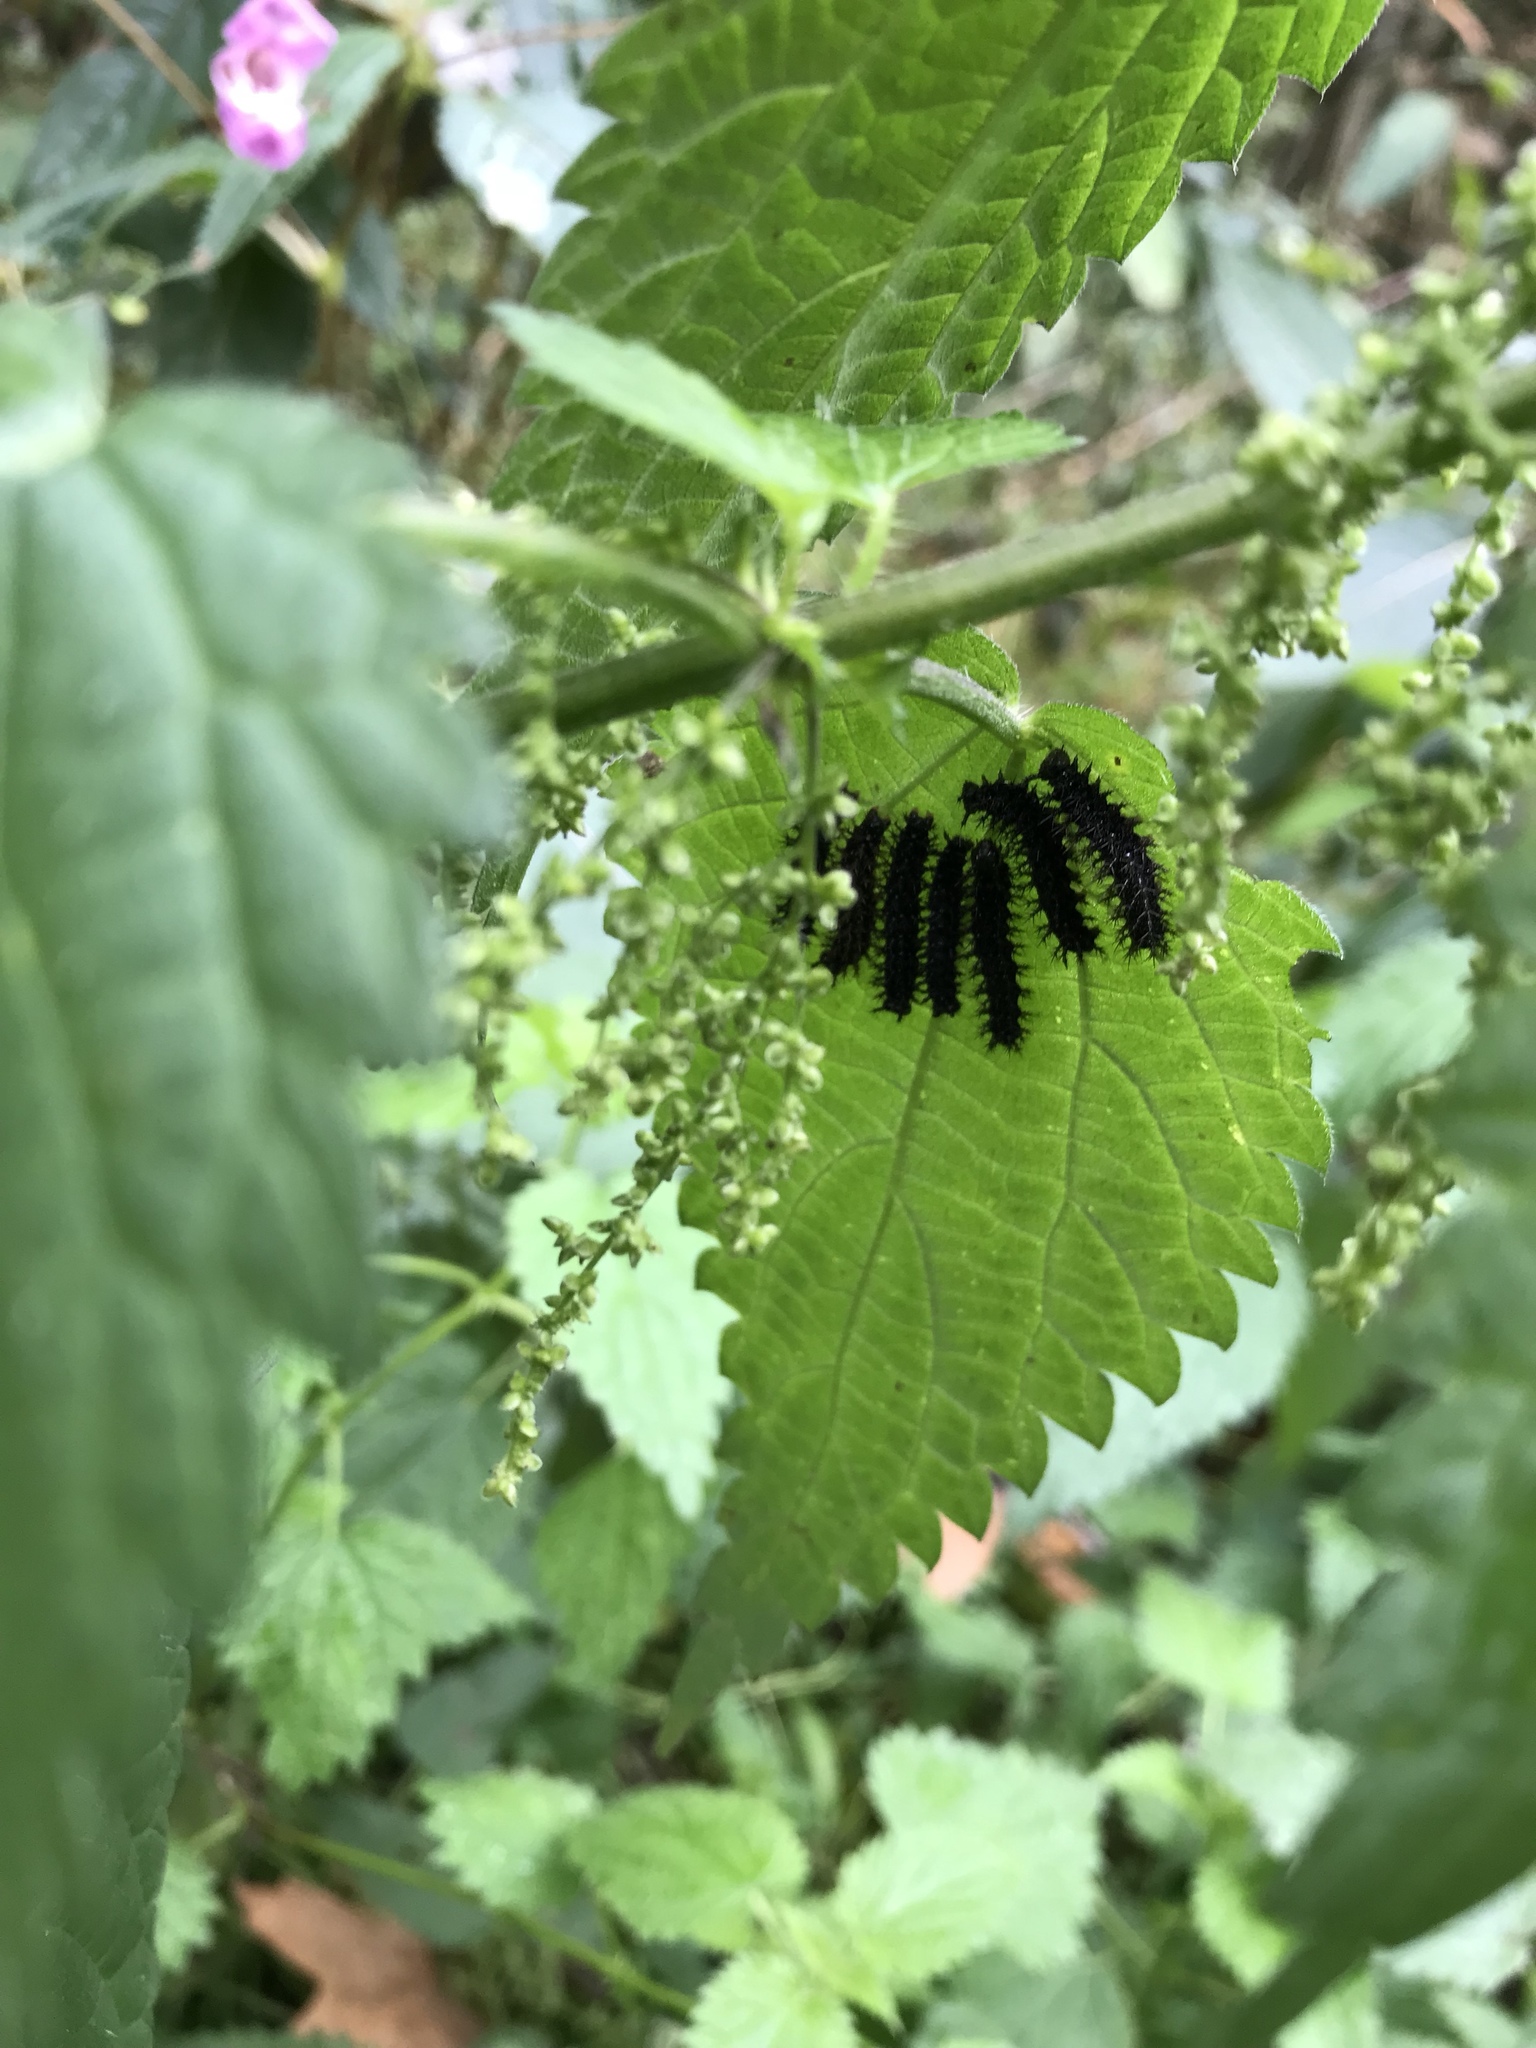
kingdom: Plantae
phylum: Tracheophyta
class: Magnoliopsida
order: Rosales
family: Urticaceae
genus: Urtica
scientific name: Urtica dioica
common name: Common nettle
